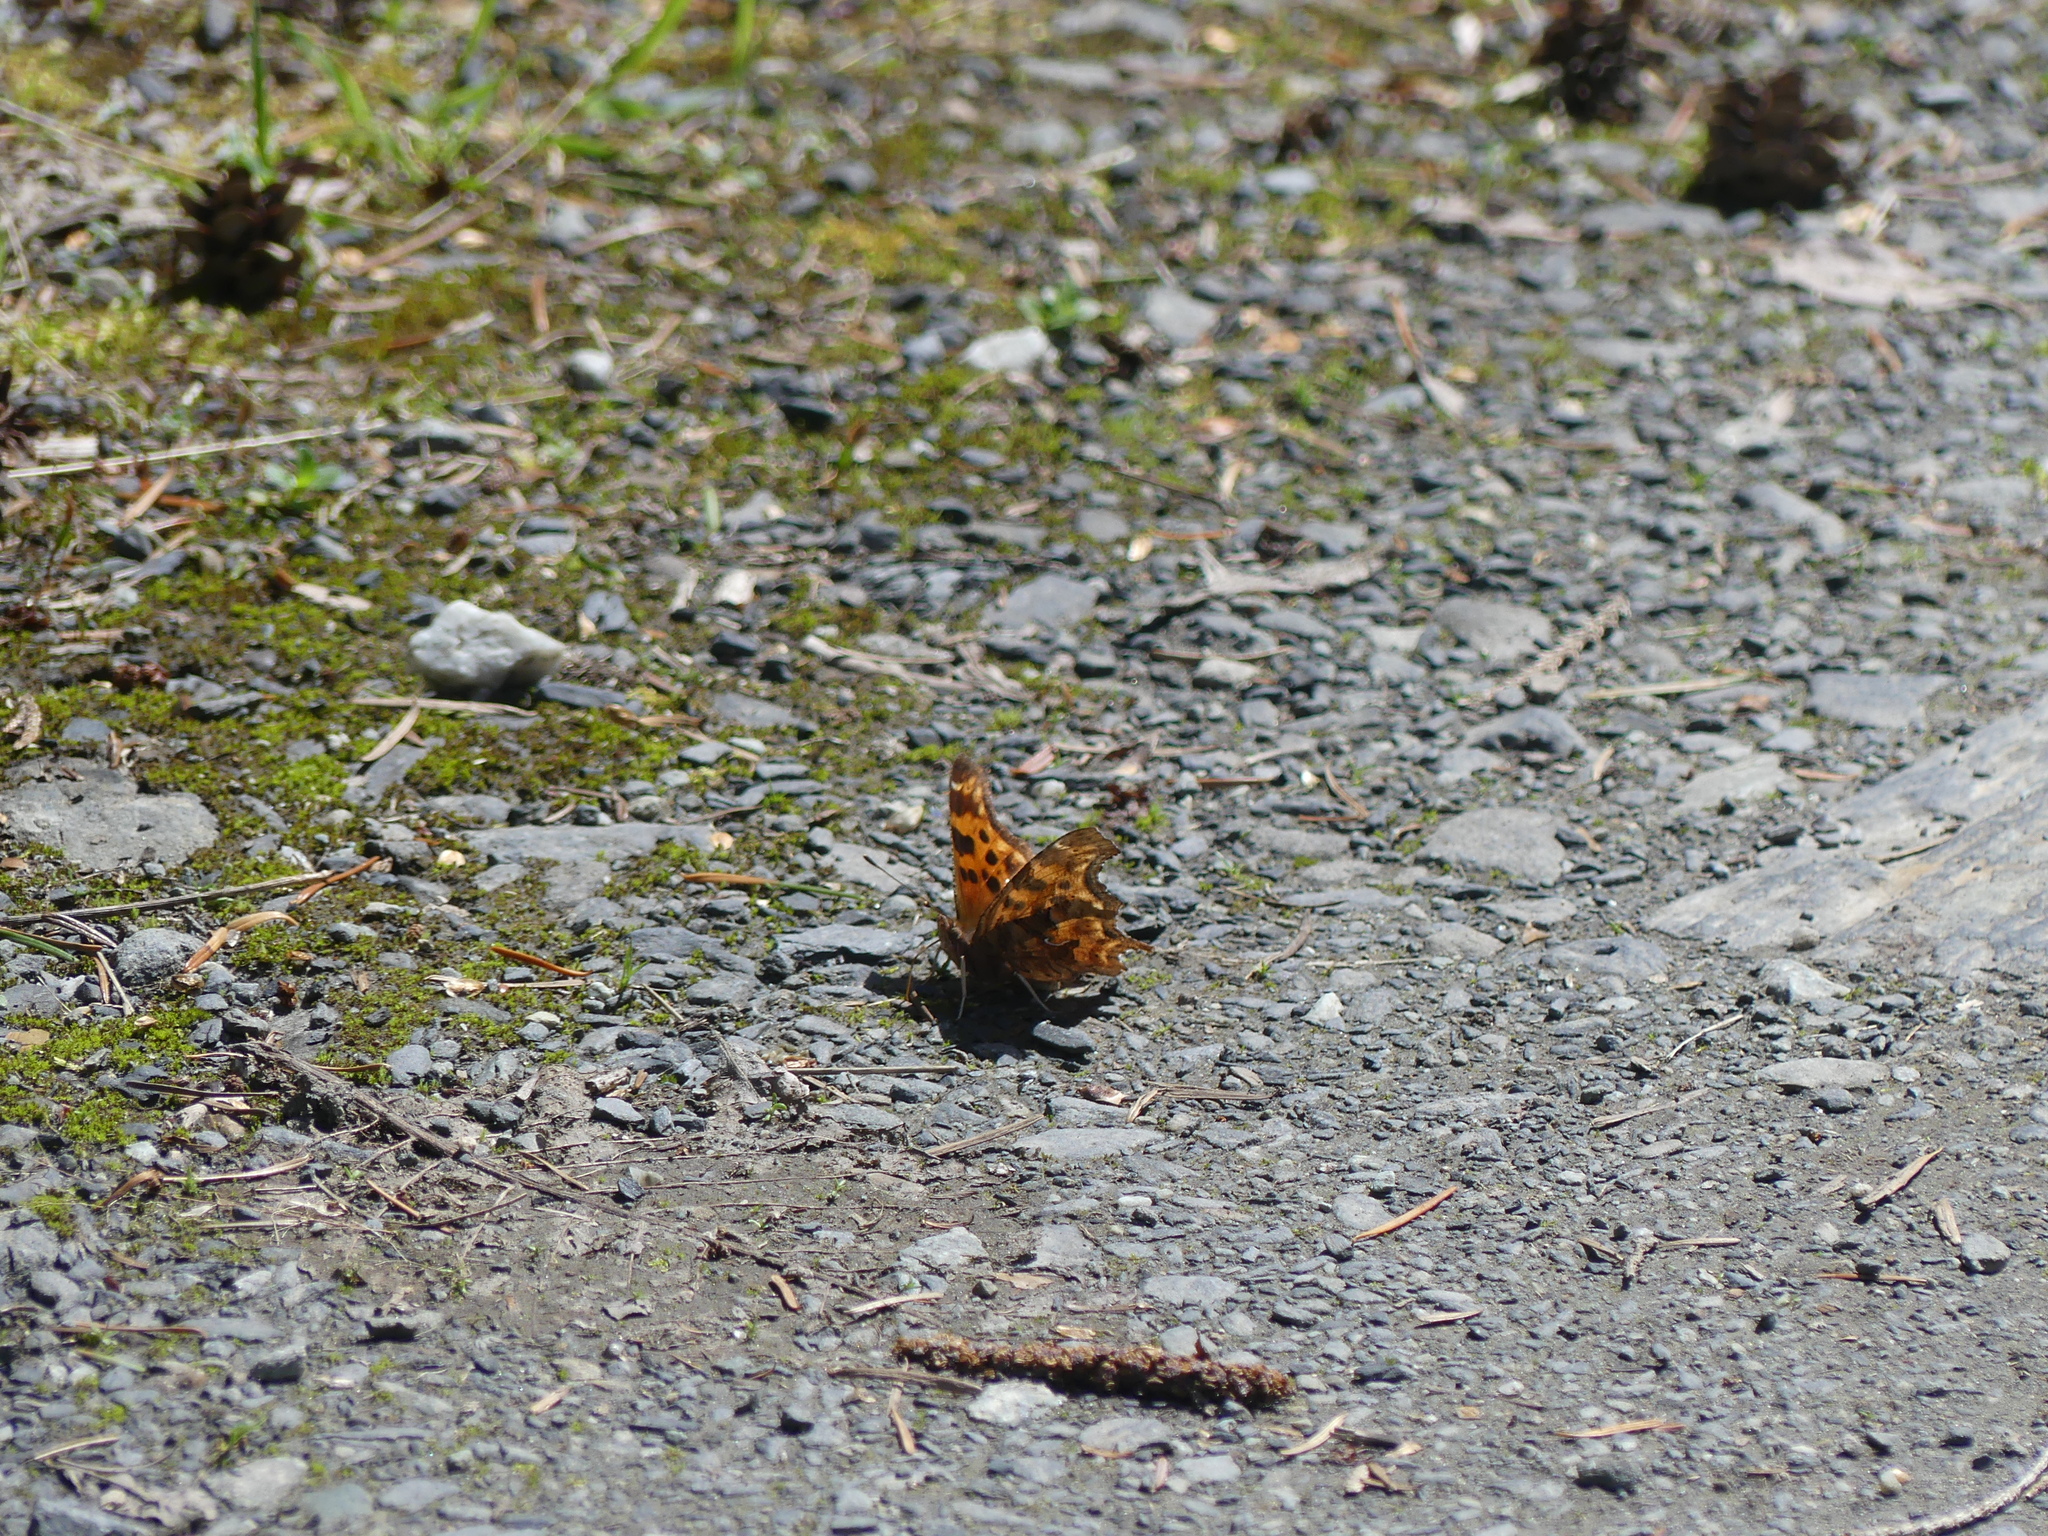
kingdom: Animalia
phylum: Arthropoda
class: Insecta
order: Lepidoptera
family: Nymphalidae
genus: Polygonia
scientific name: Polygonia satyrus
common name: Satyr angle wing
